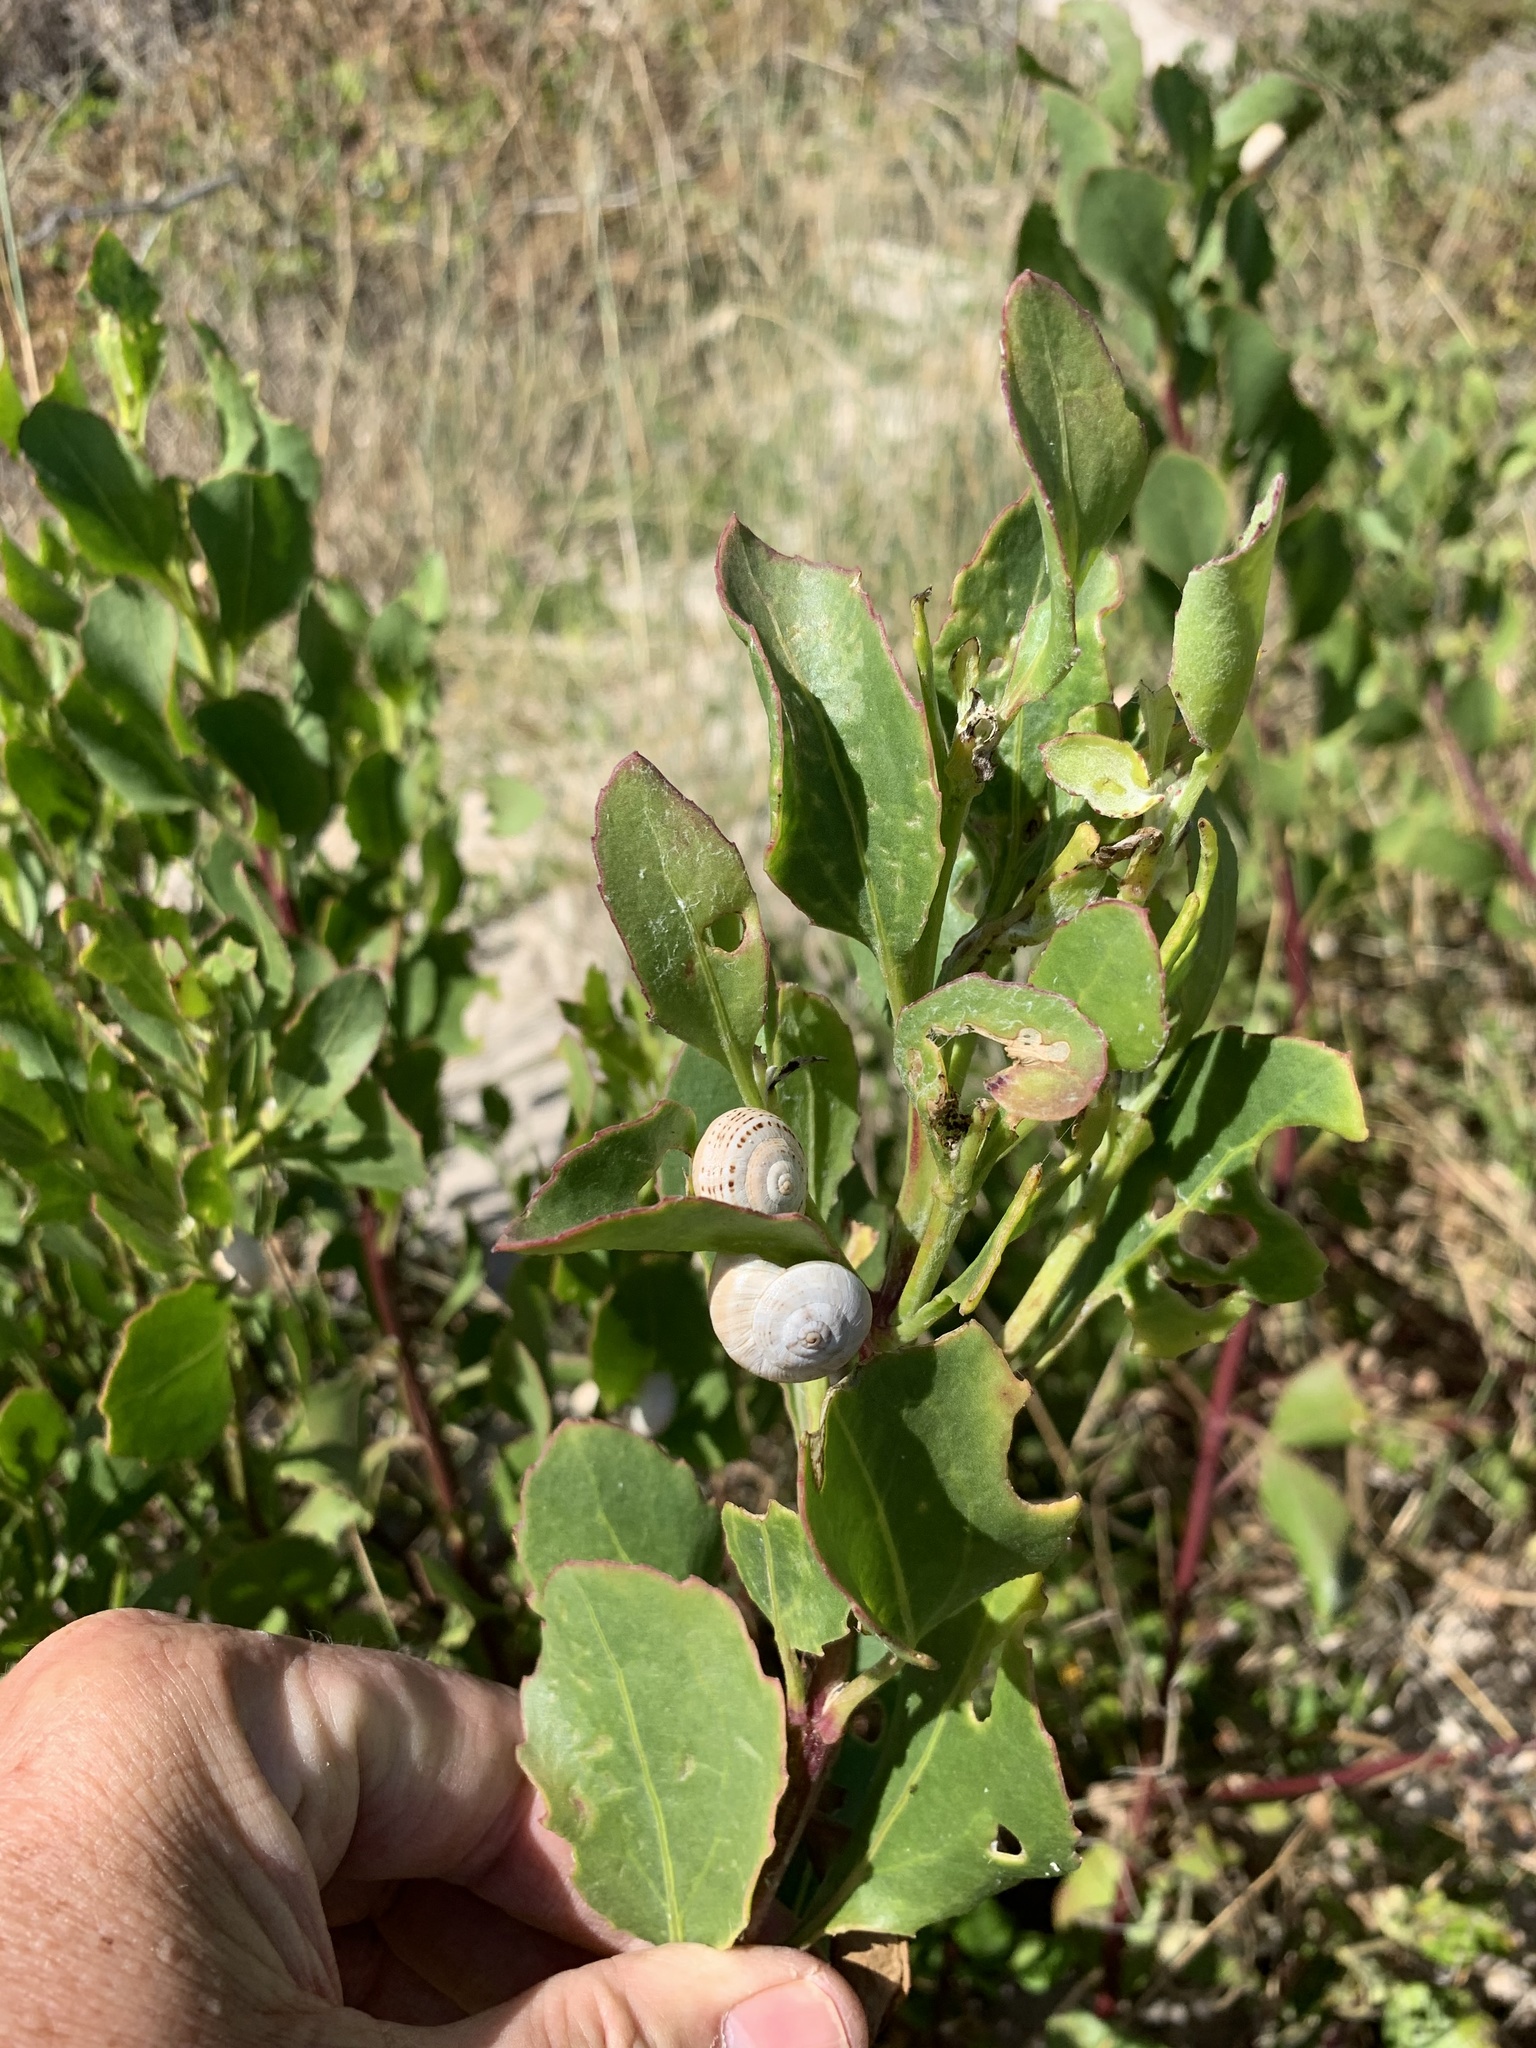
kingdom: Animalia
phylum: Mollusca
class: Gastropoda
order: Stylommatophora
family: Helicidae
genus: Theba
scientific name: Theba pisana
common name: White snail
